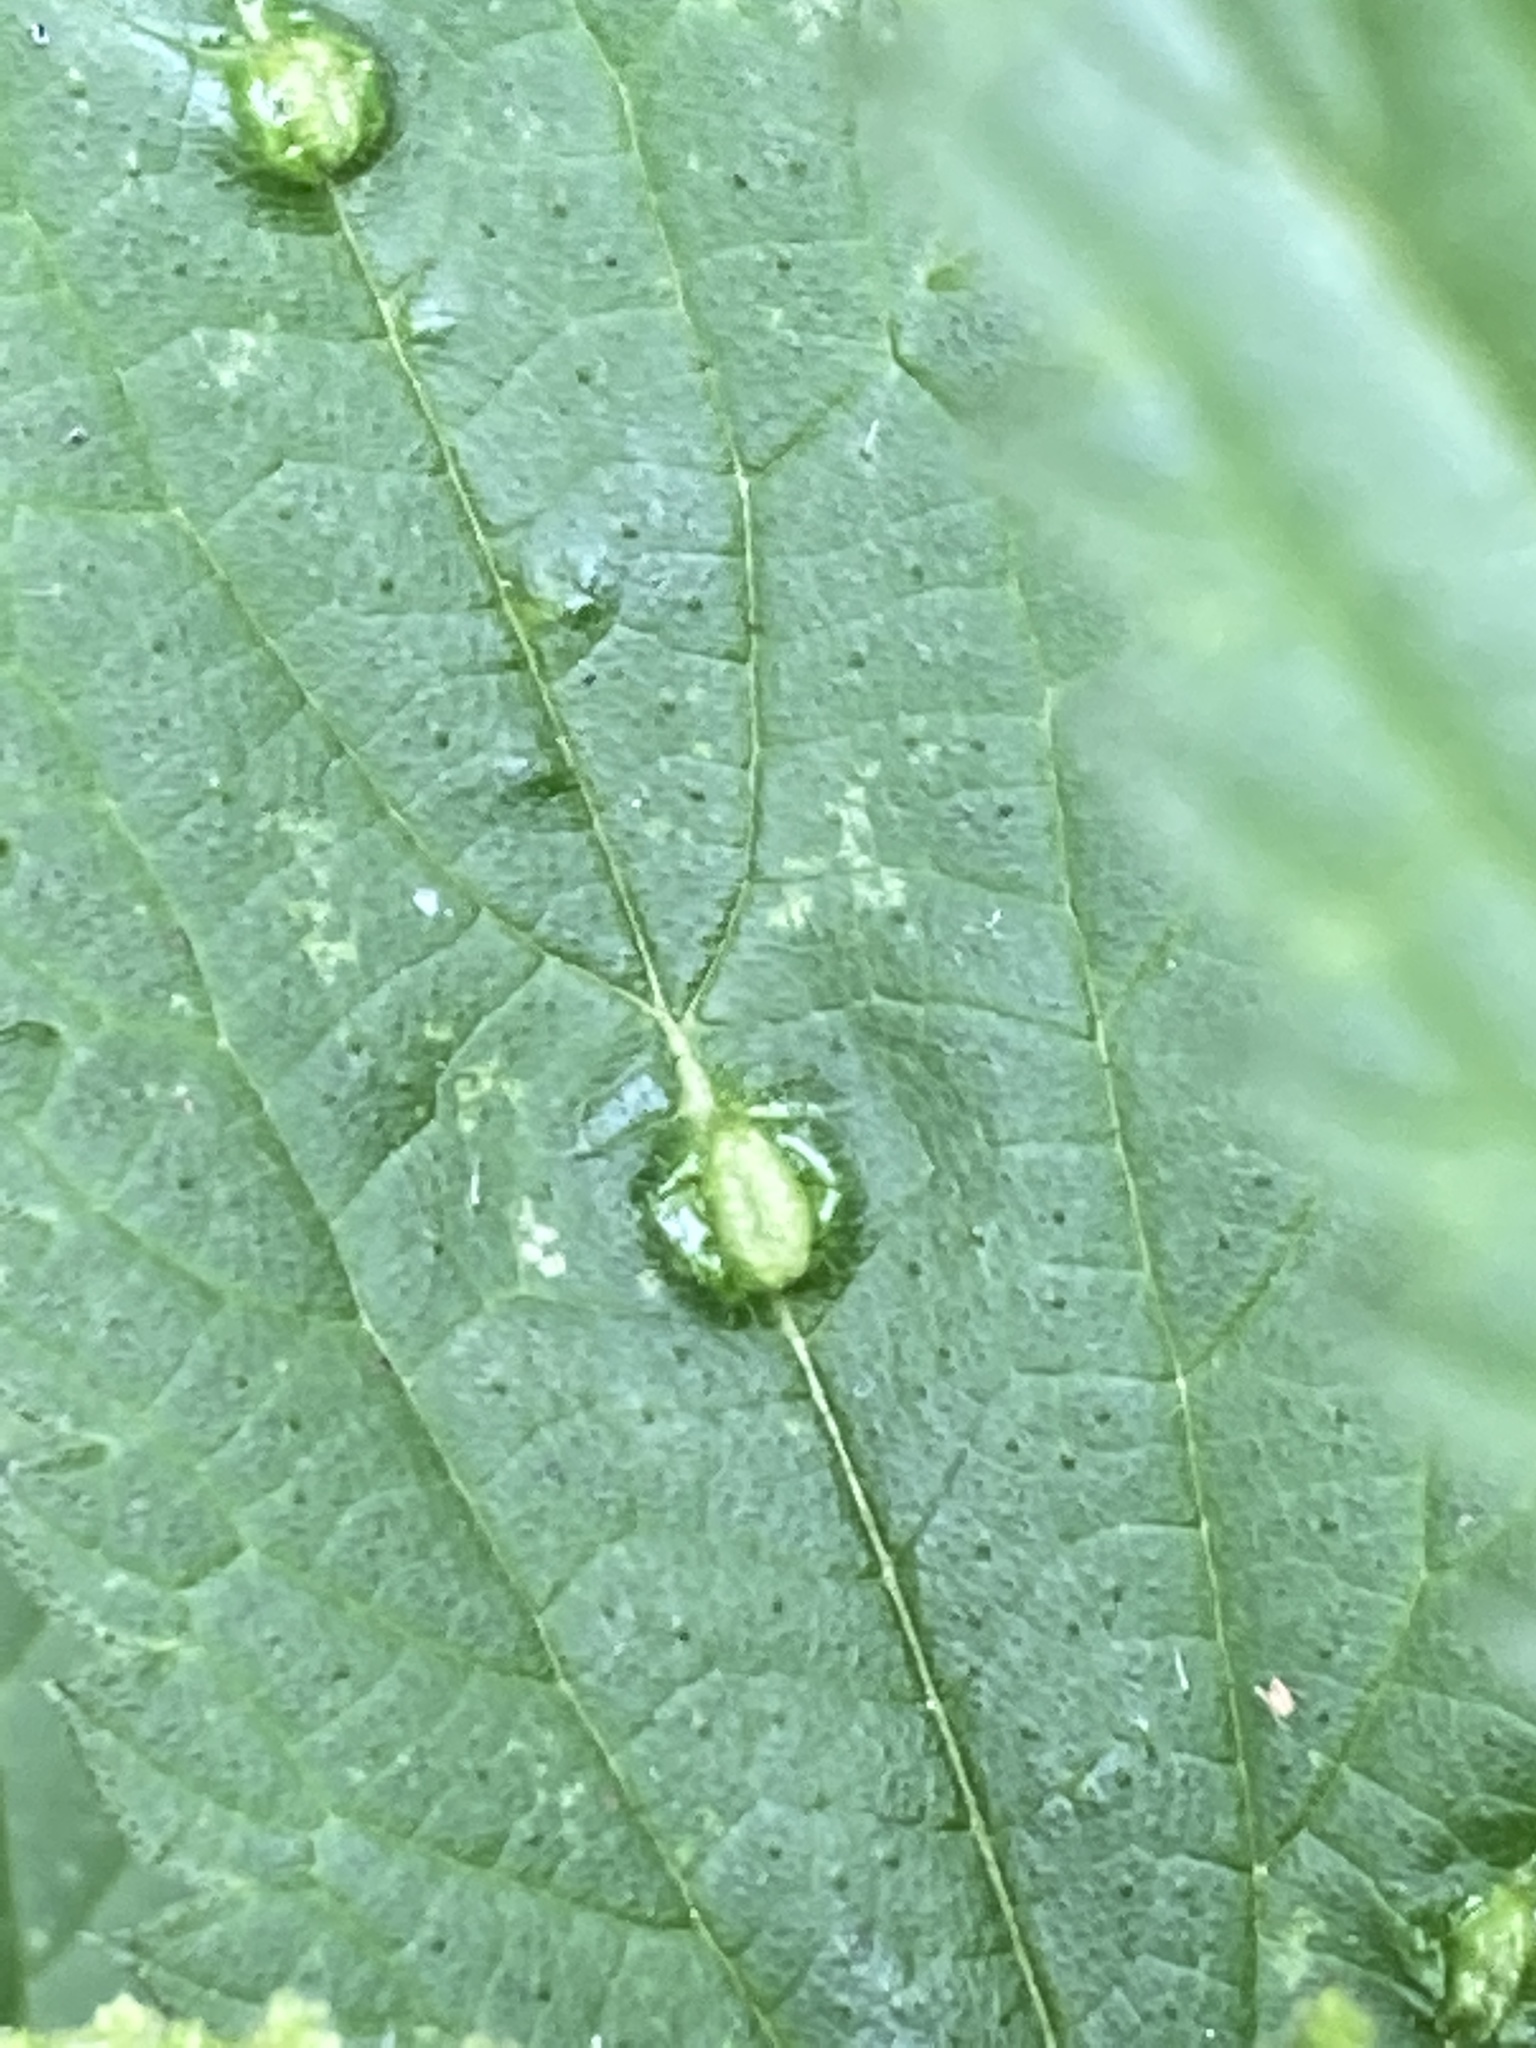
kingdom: Animalia
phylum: Arthropoda
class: Insecta
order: Diptera
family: Cecidomyiidae
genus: Dasineura
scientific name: Dasineura urticae
